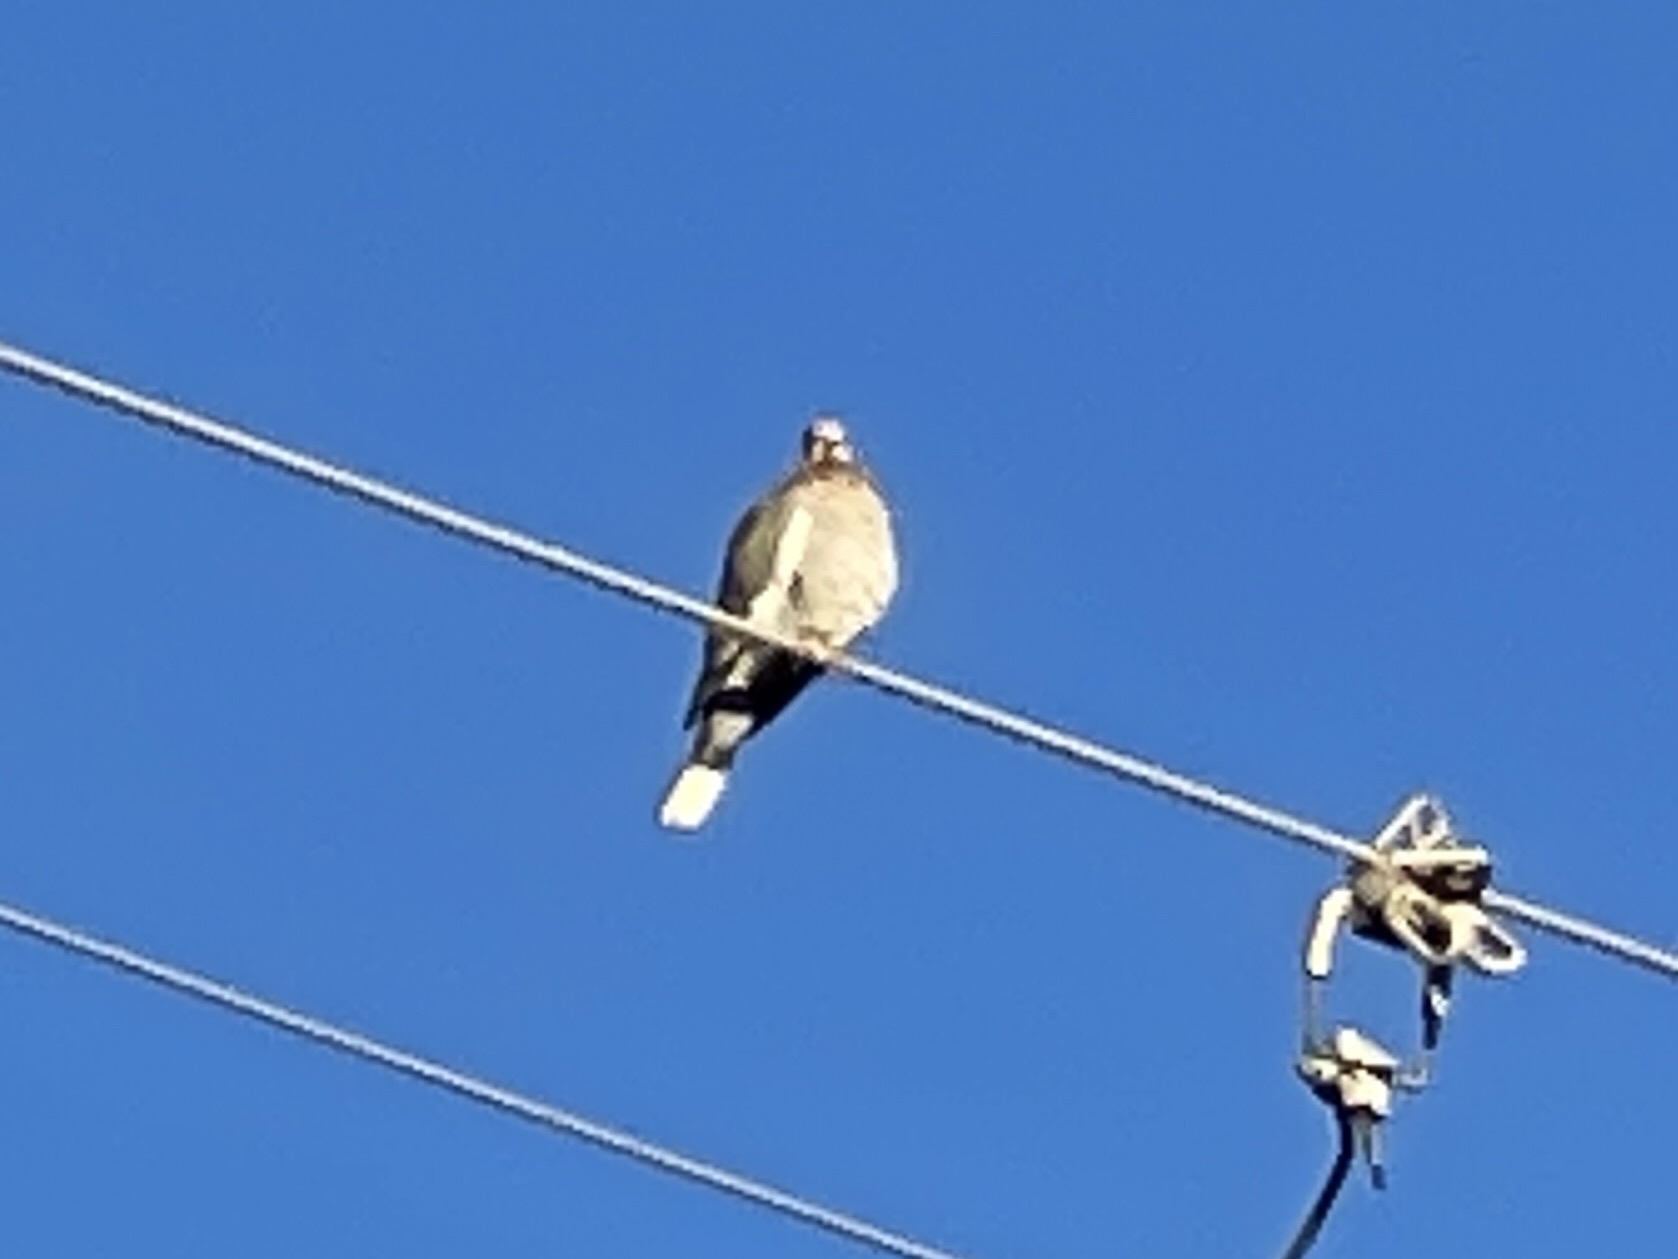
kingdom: Animalia
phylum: Chordata
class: Aves
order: Columbiformes
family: Columbidae
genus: Zenaida
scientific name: Zenaida asiatica
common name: White-winged dove
